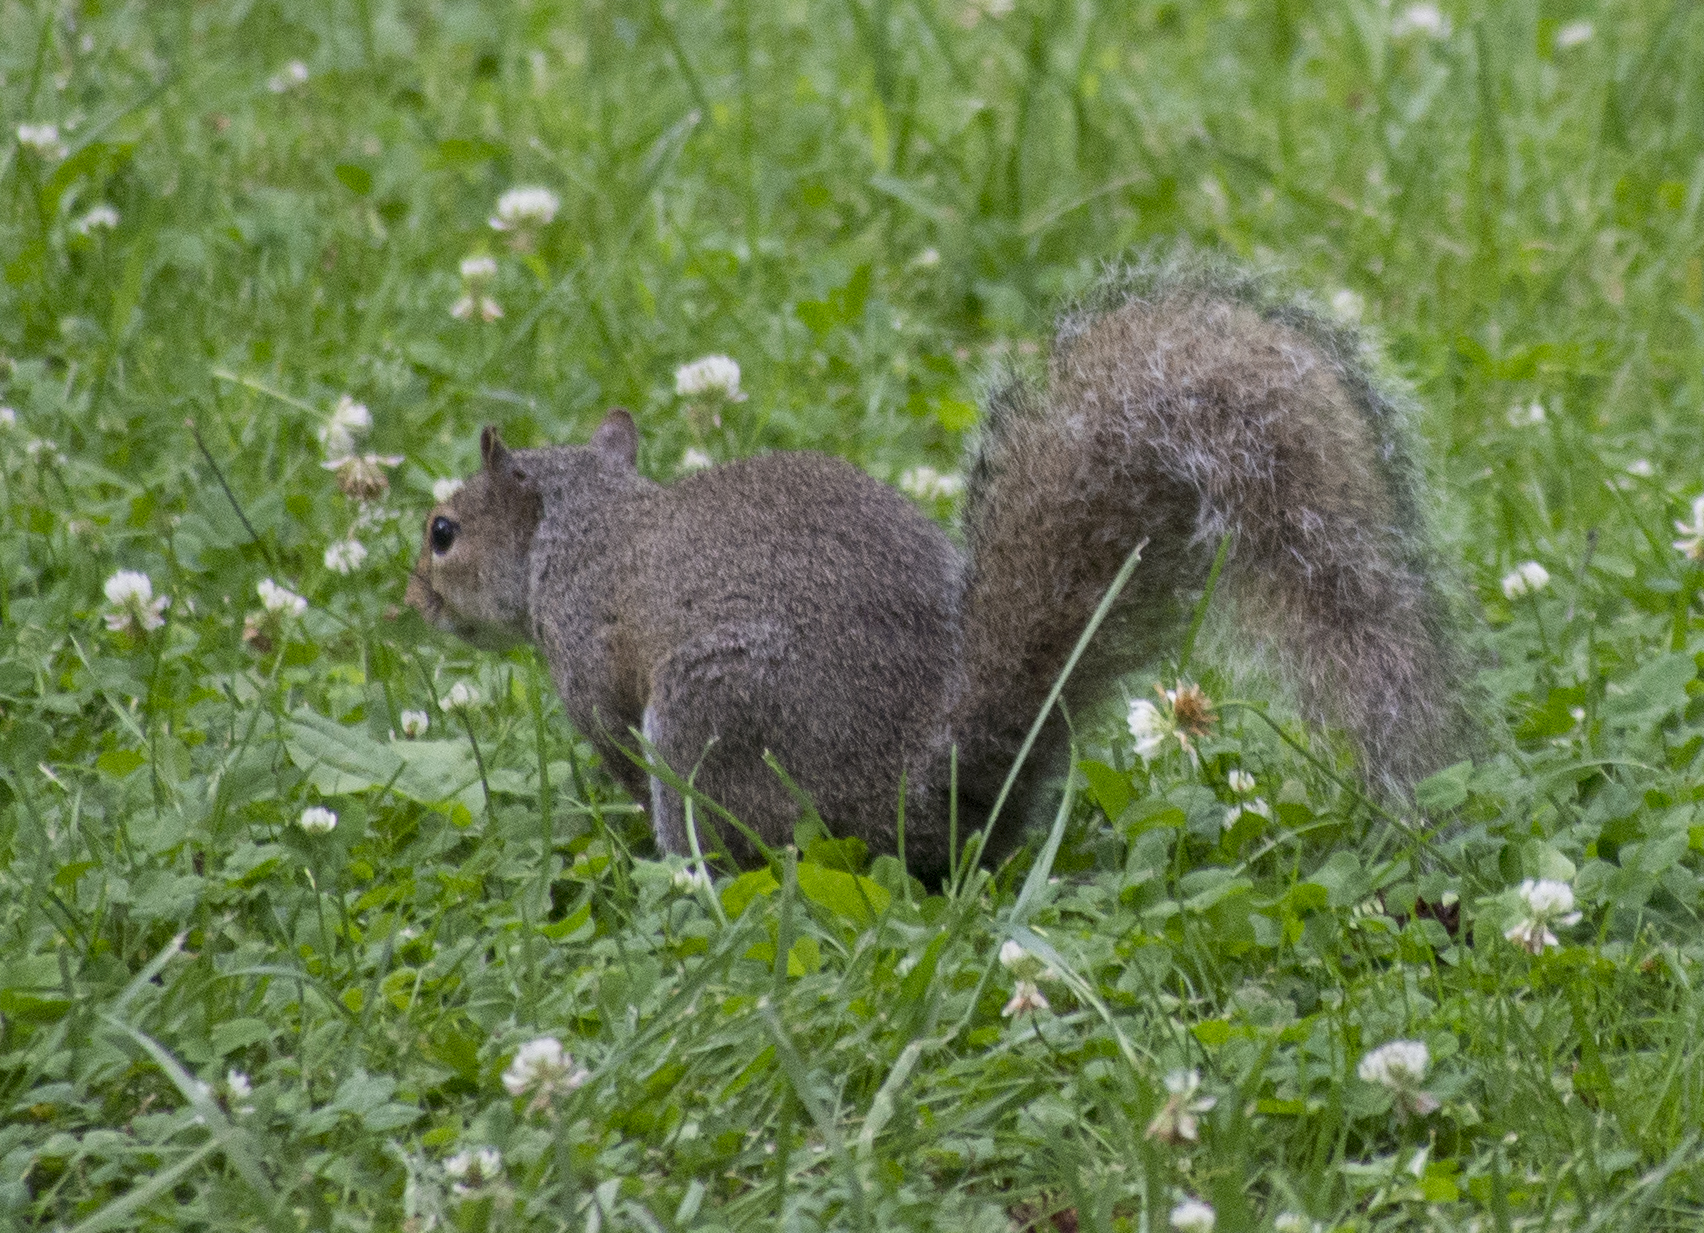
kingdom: Animalia
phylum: Chordata
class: Mammalia
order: Rodentia
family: Sciuridae
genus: Sciurus
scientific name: Sciurus carolinensis
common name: Eastern gray squirrel
